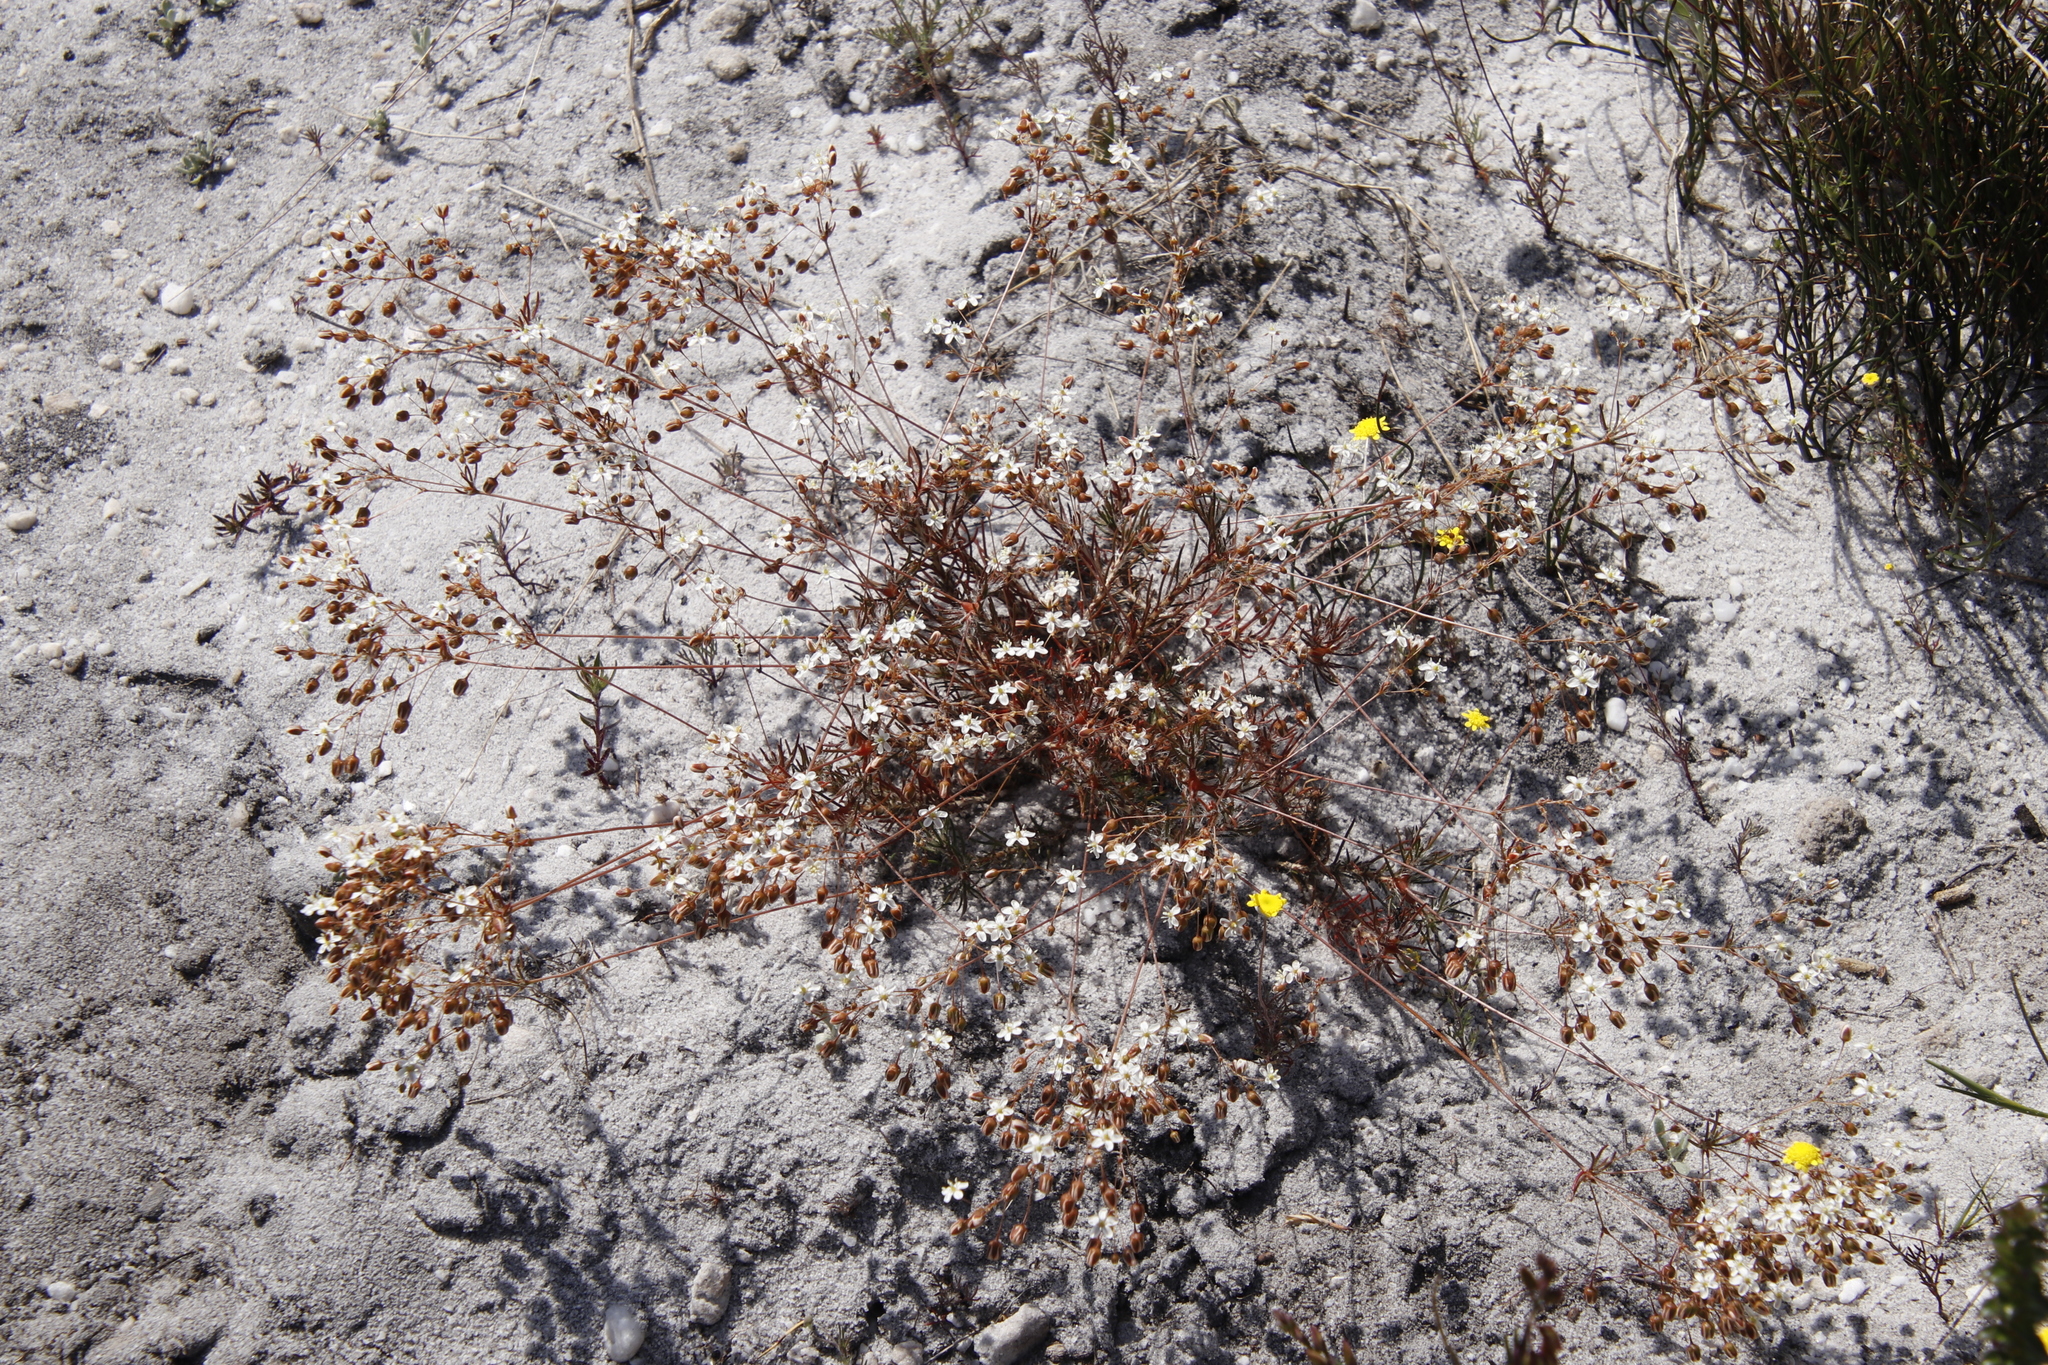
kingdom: Plantae
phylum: Tracheophyta
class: Magnoliopsida
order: Caryophyllales
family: Molluginaceae
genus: Pharnaceum
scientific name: Pharnaceum elongatum
